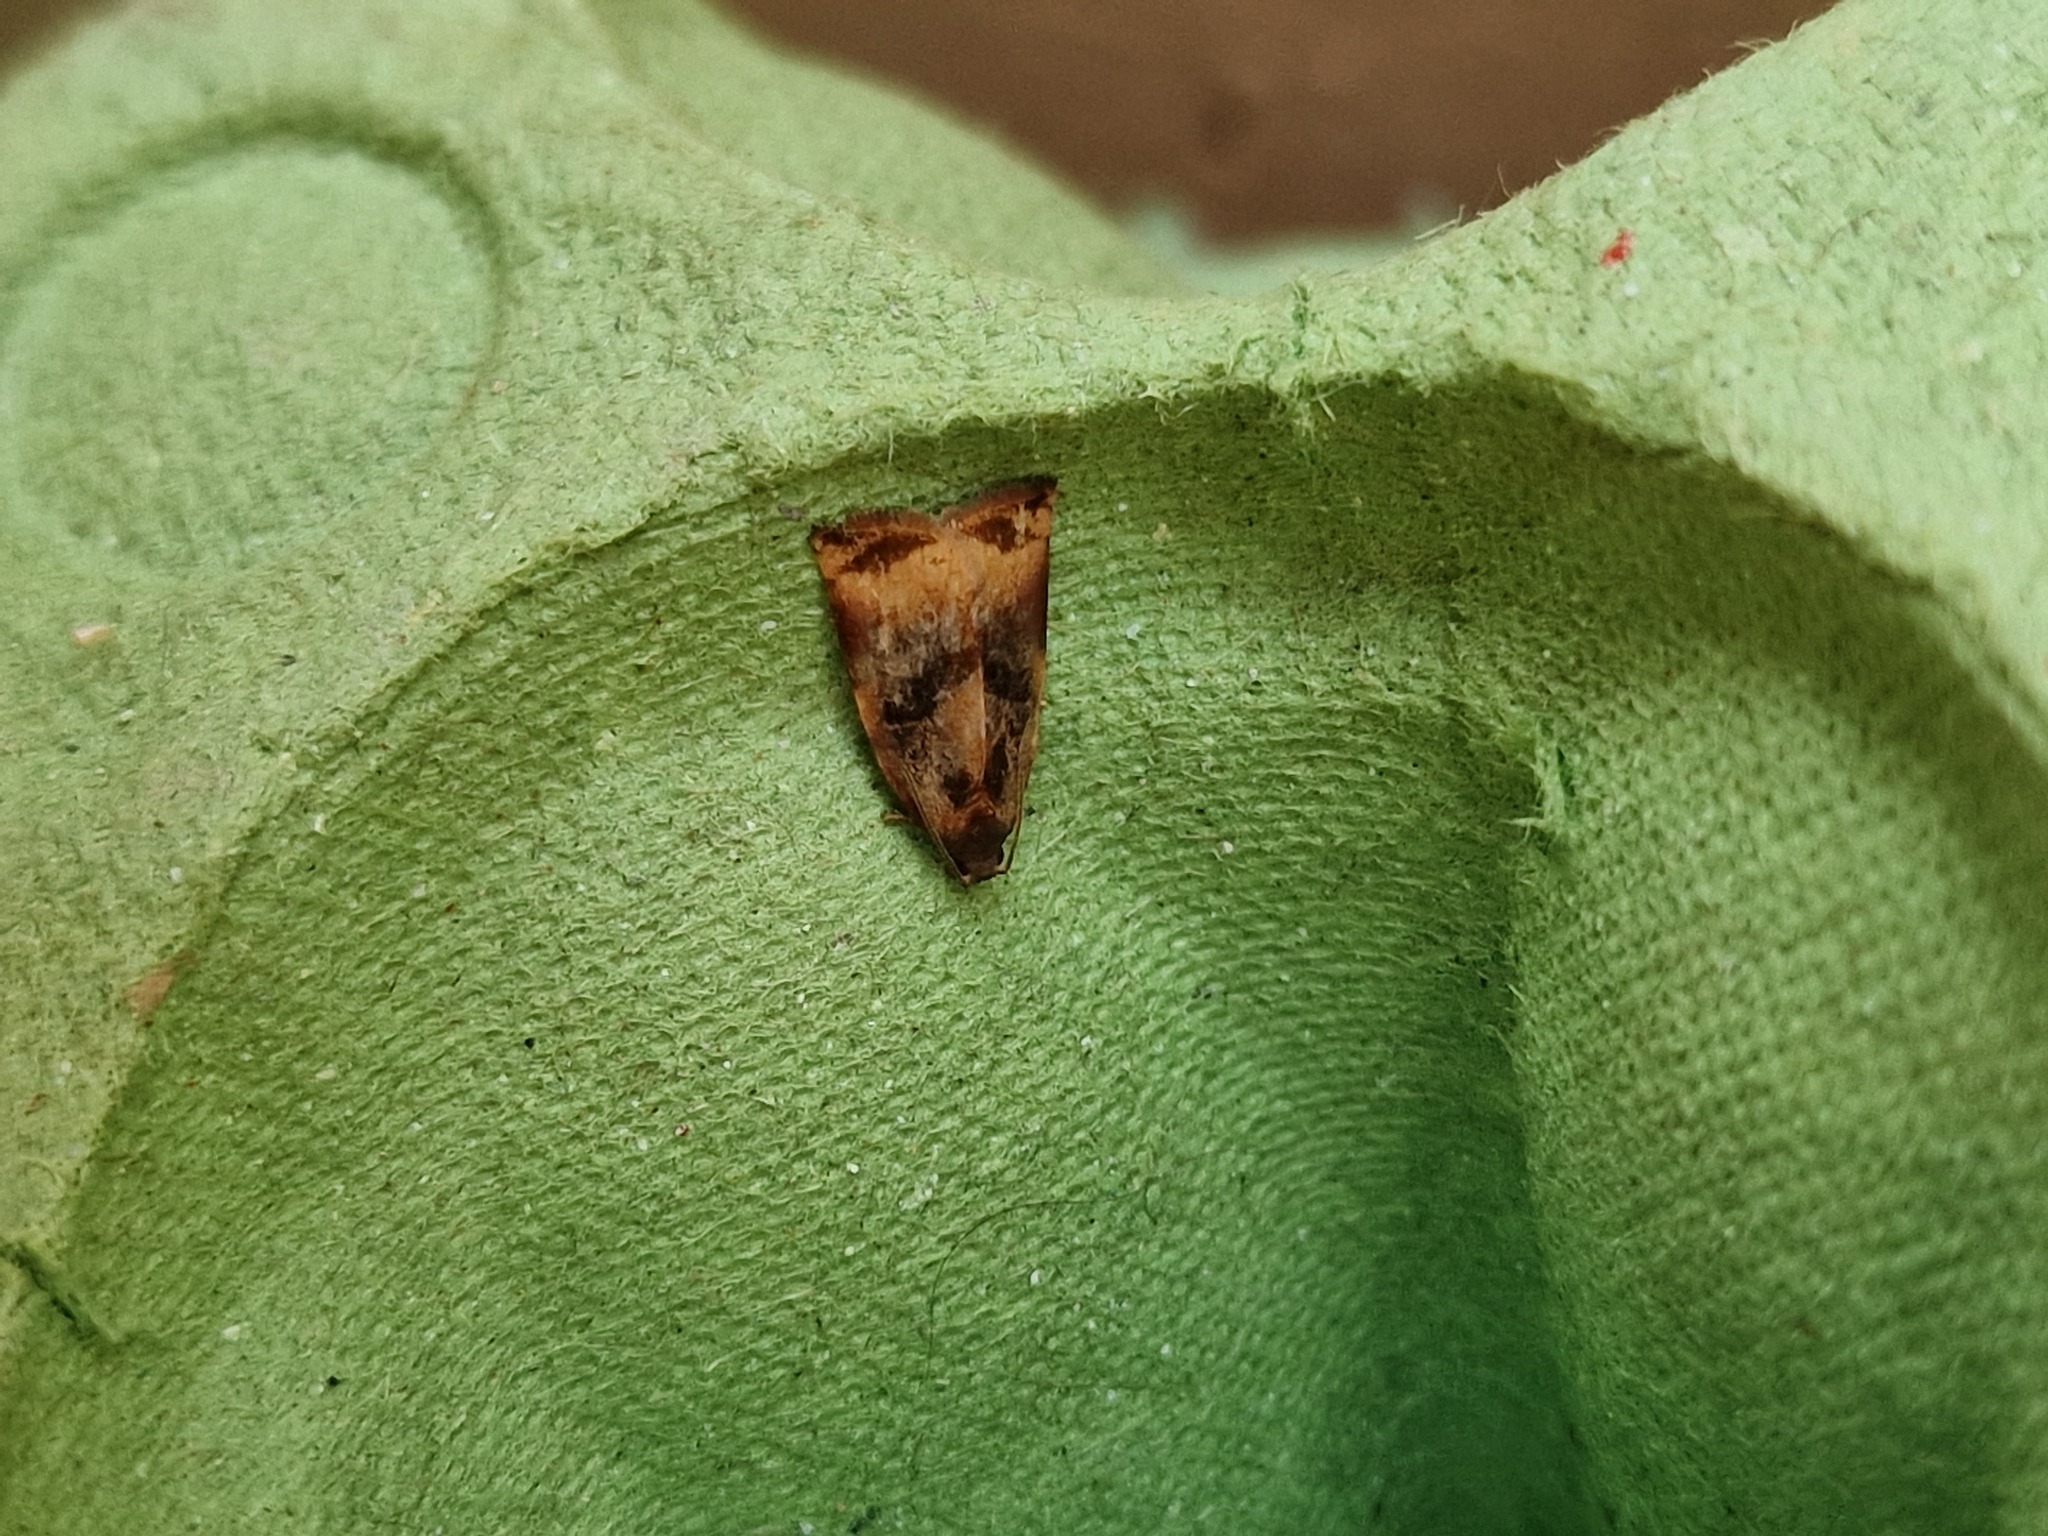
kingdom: Animalia
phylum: Arthropoda
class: Insecta
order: Lepidoptera
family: Tortricidae
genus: Archips
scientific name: Archips podana
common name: Large fruit-tree tortrix
